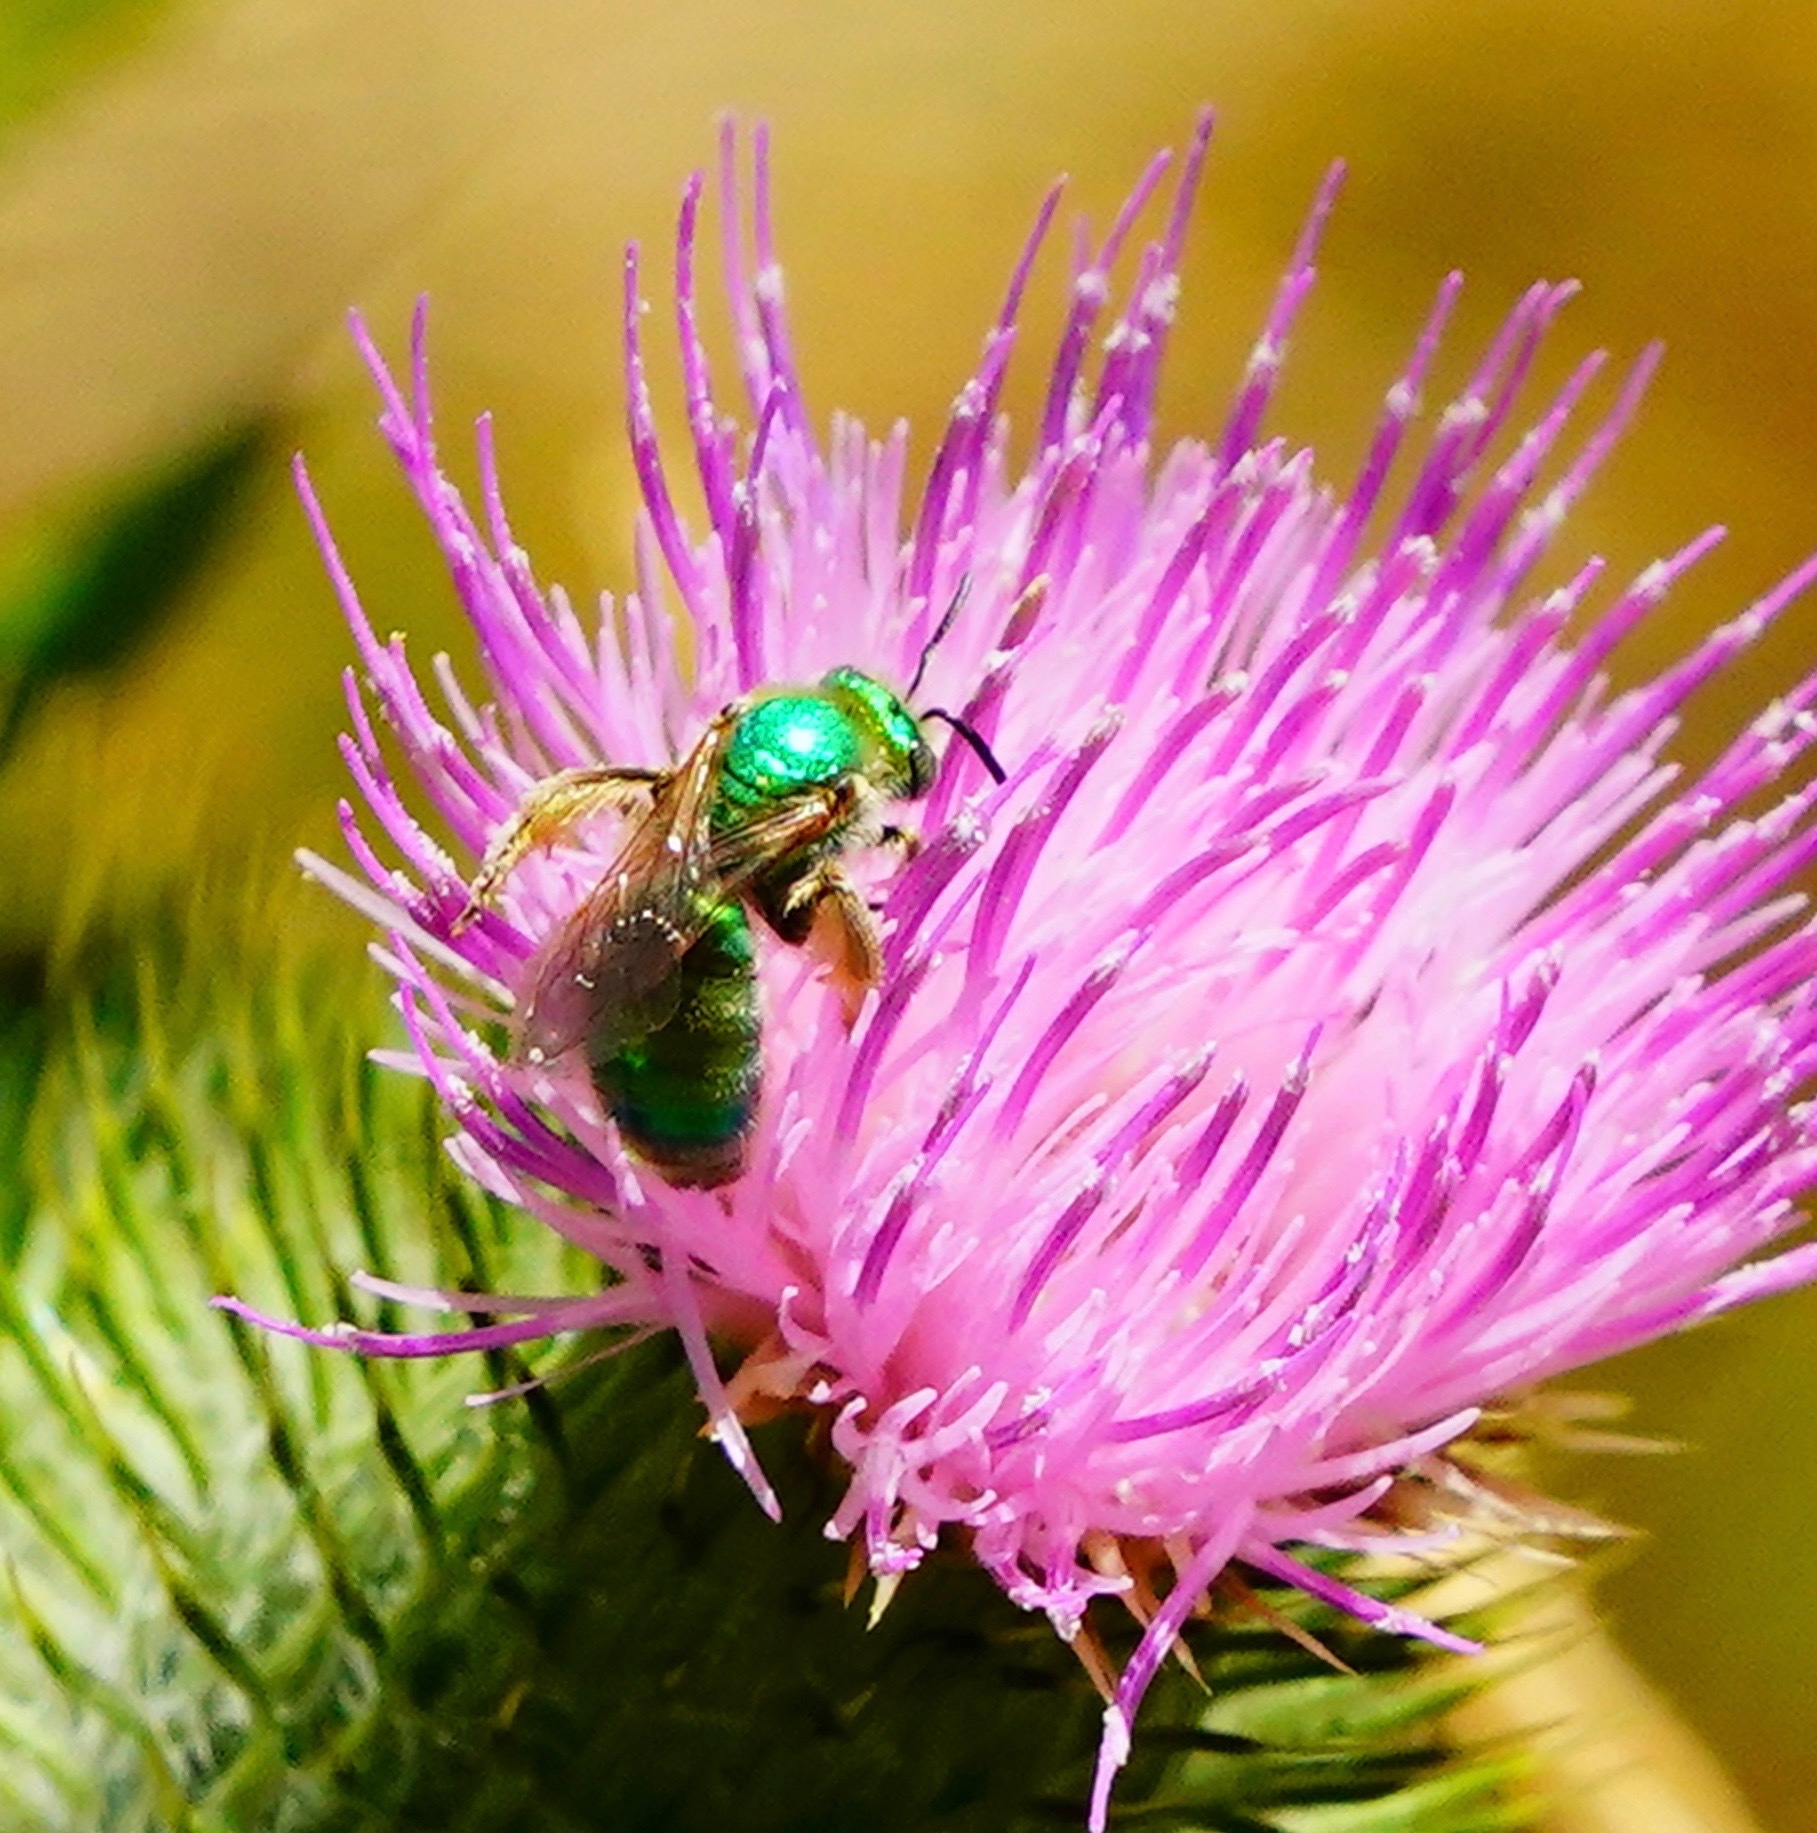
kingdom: Animalia
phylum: Arthropoda
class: Insecta
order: Hymenoptera
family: Halictidae
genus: Agapostemon
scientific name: Agapostemon texanus
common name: Texas striped sweat bee
